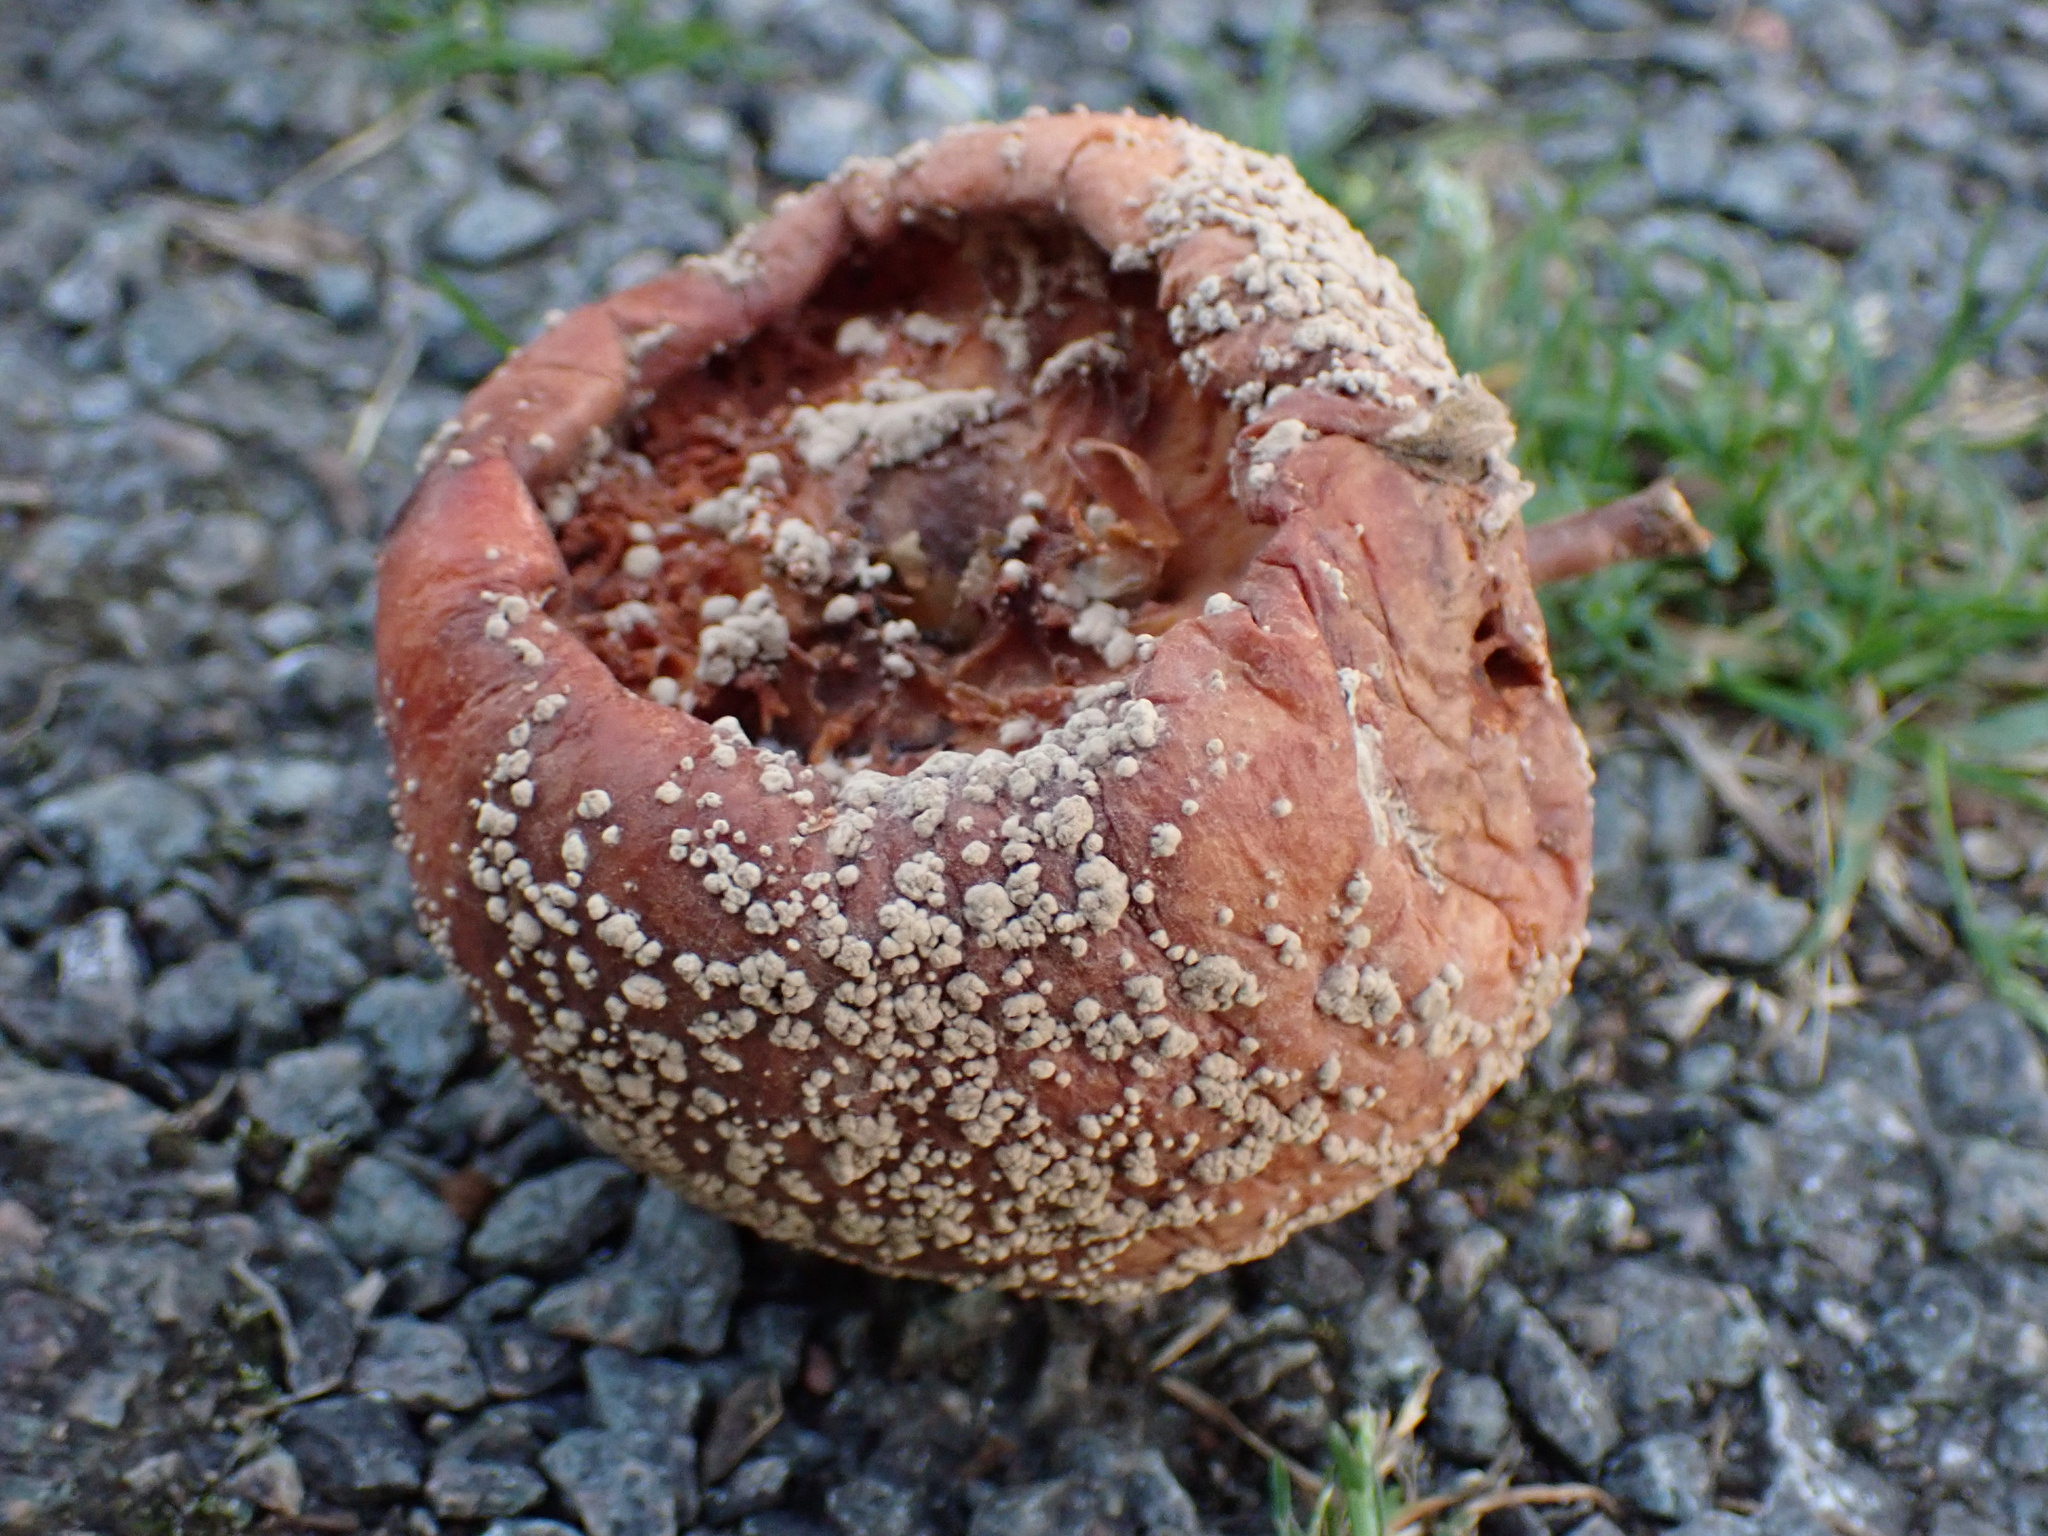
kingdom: Fungi
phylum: Ascomycota
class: Eurotiomycetes
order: Eurotiales
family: Aspergillaceae
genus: Penicillium
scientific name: Penicillium expansum
